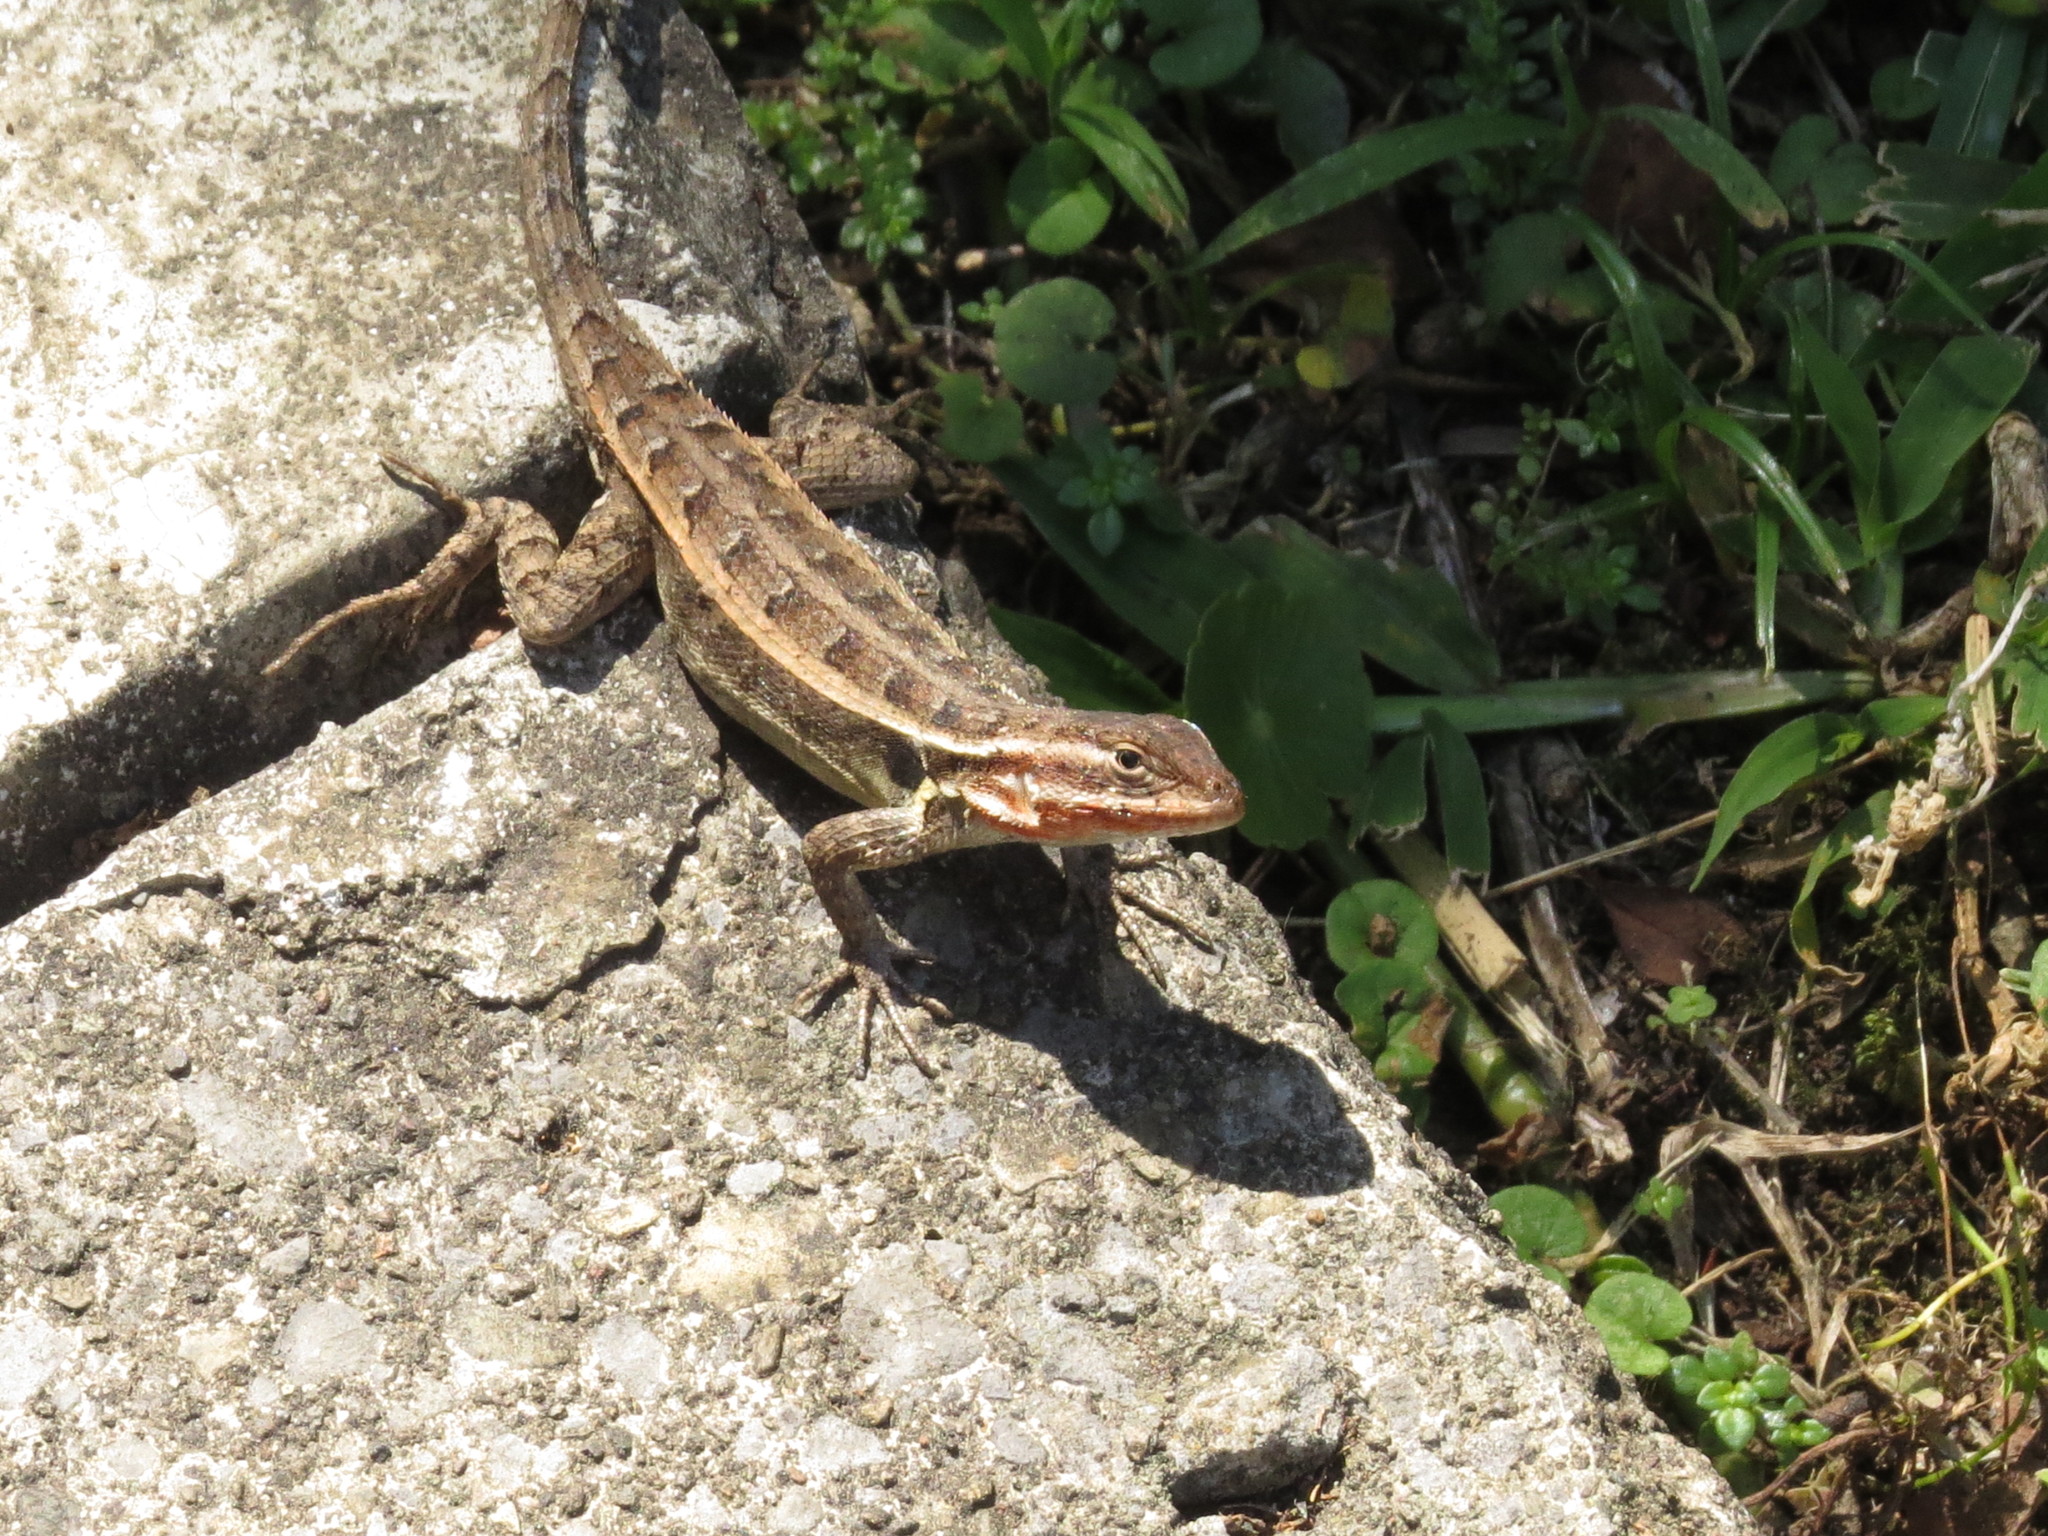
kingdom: Animalia
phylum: Chordata
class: Squamata
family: Phrynosomatidae
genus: Sceloporus
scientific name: Sceloporus variabilis
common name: Rosebelly lizard
